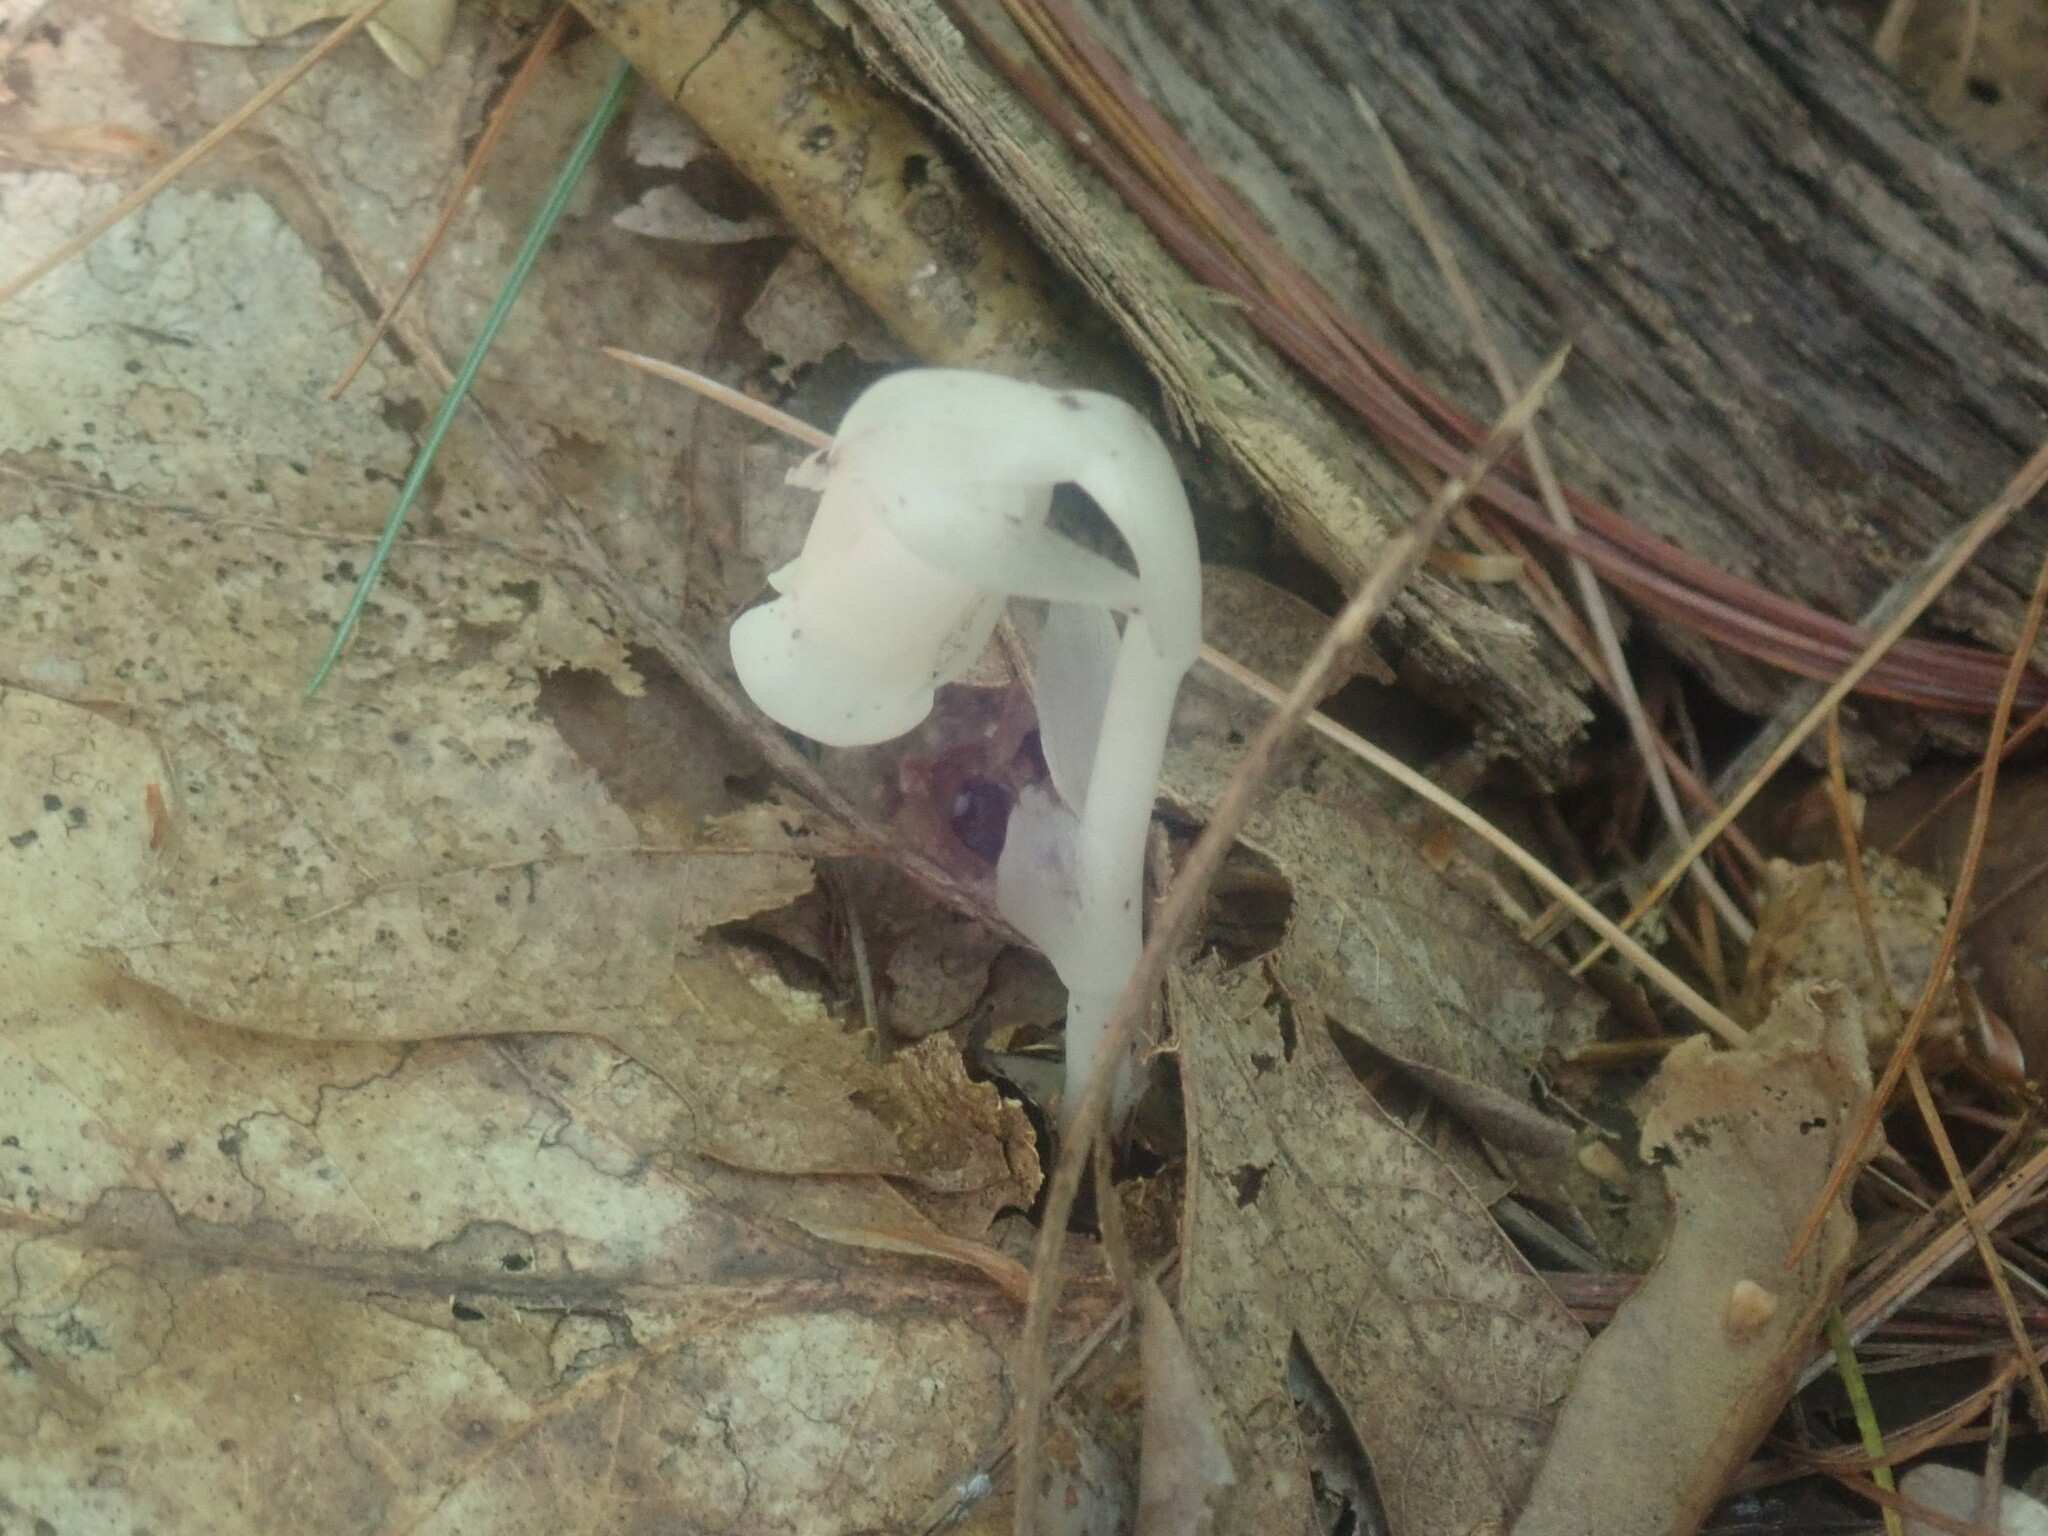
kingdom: Plantae
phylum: Tracheophyta
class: Magnoliopsida
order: Ericales
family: Ericaceae
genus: Monotropa
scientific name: Monotropa uniflora
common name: Convulsion root
